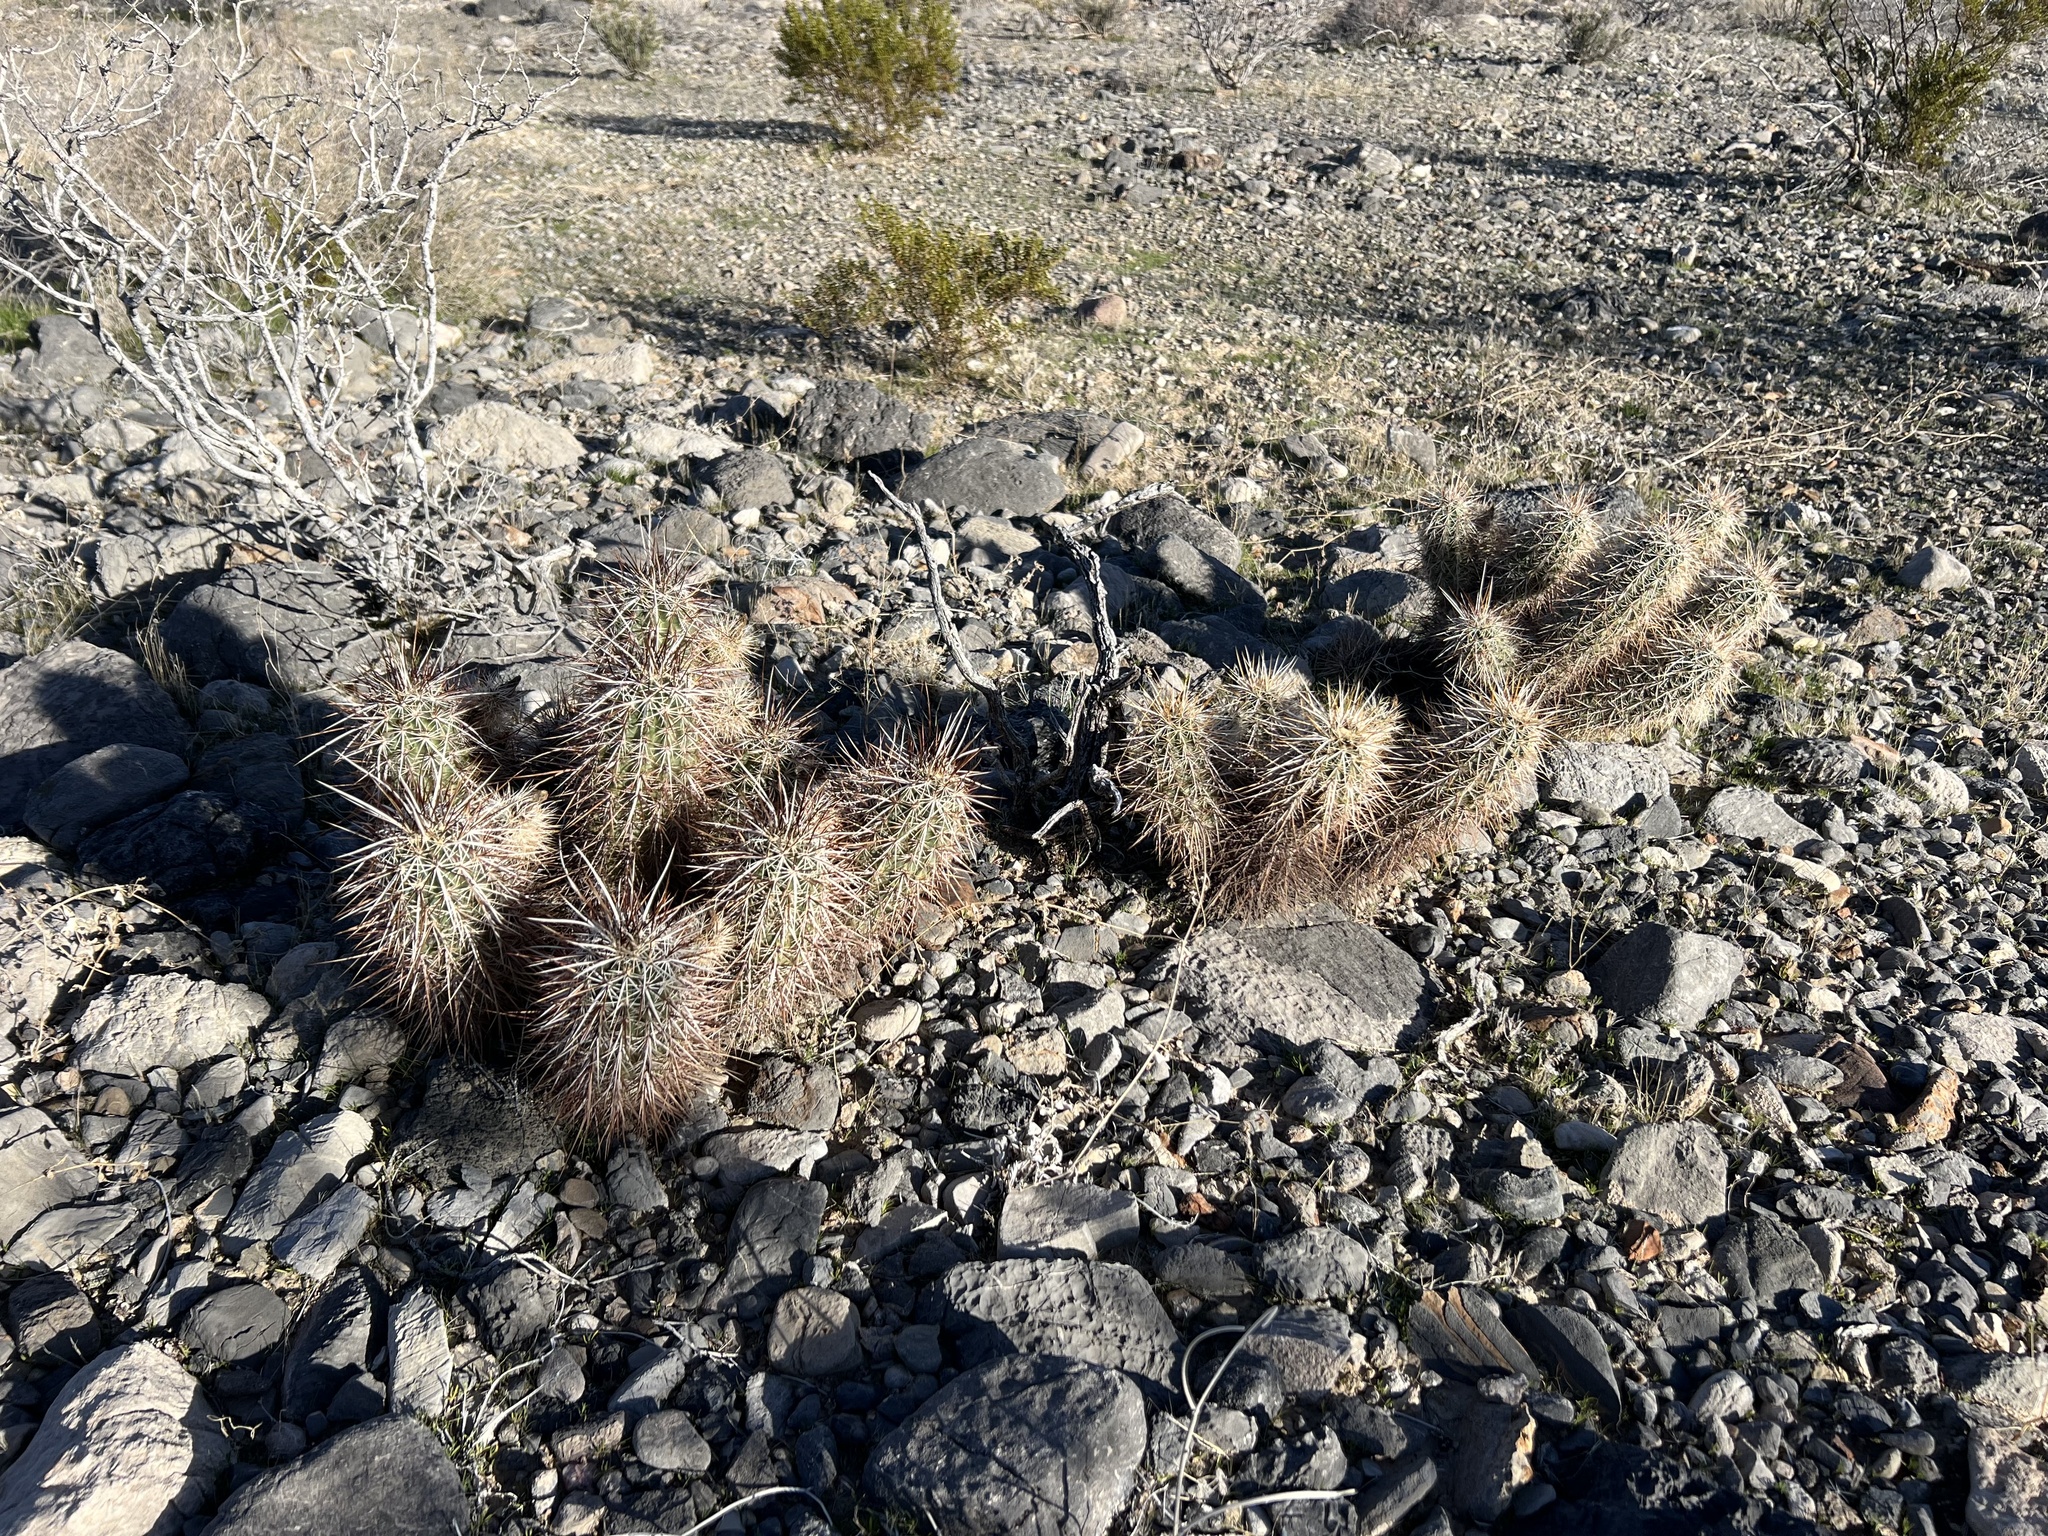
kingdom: Plantae
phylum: Tracheophyta
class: Magnoliopsida
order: Caryophyllales
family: Cactaceae
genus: Echinocereus
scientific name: Echinocereus engelmannii
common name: Engelmann's hedgehog cactus
